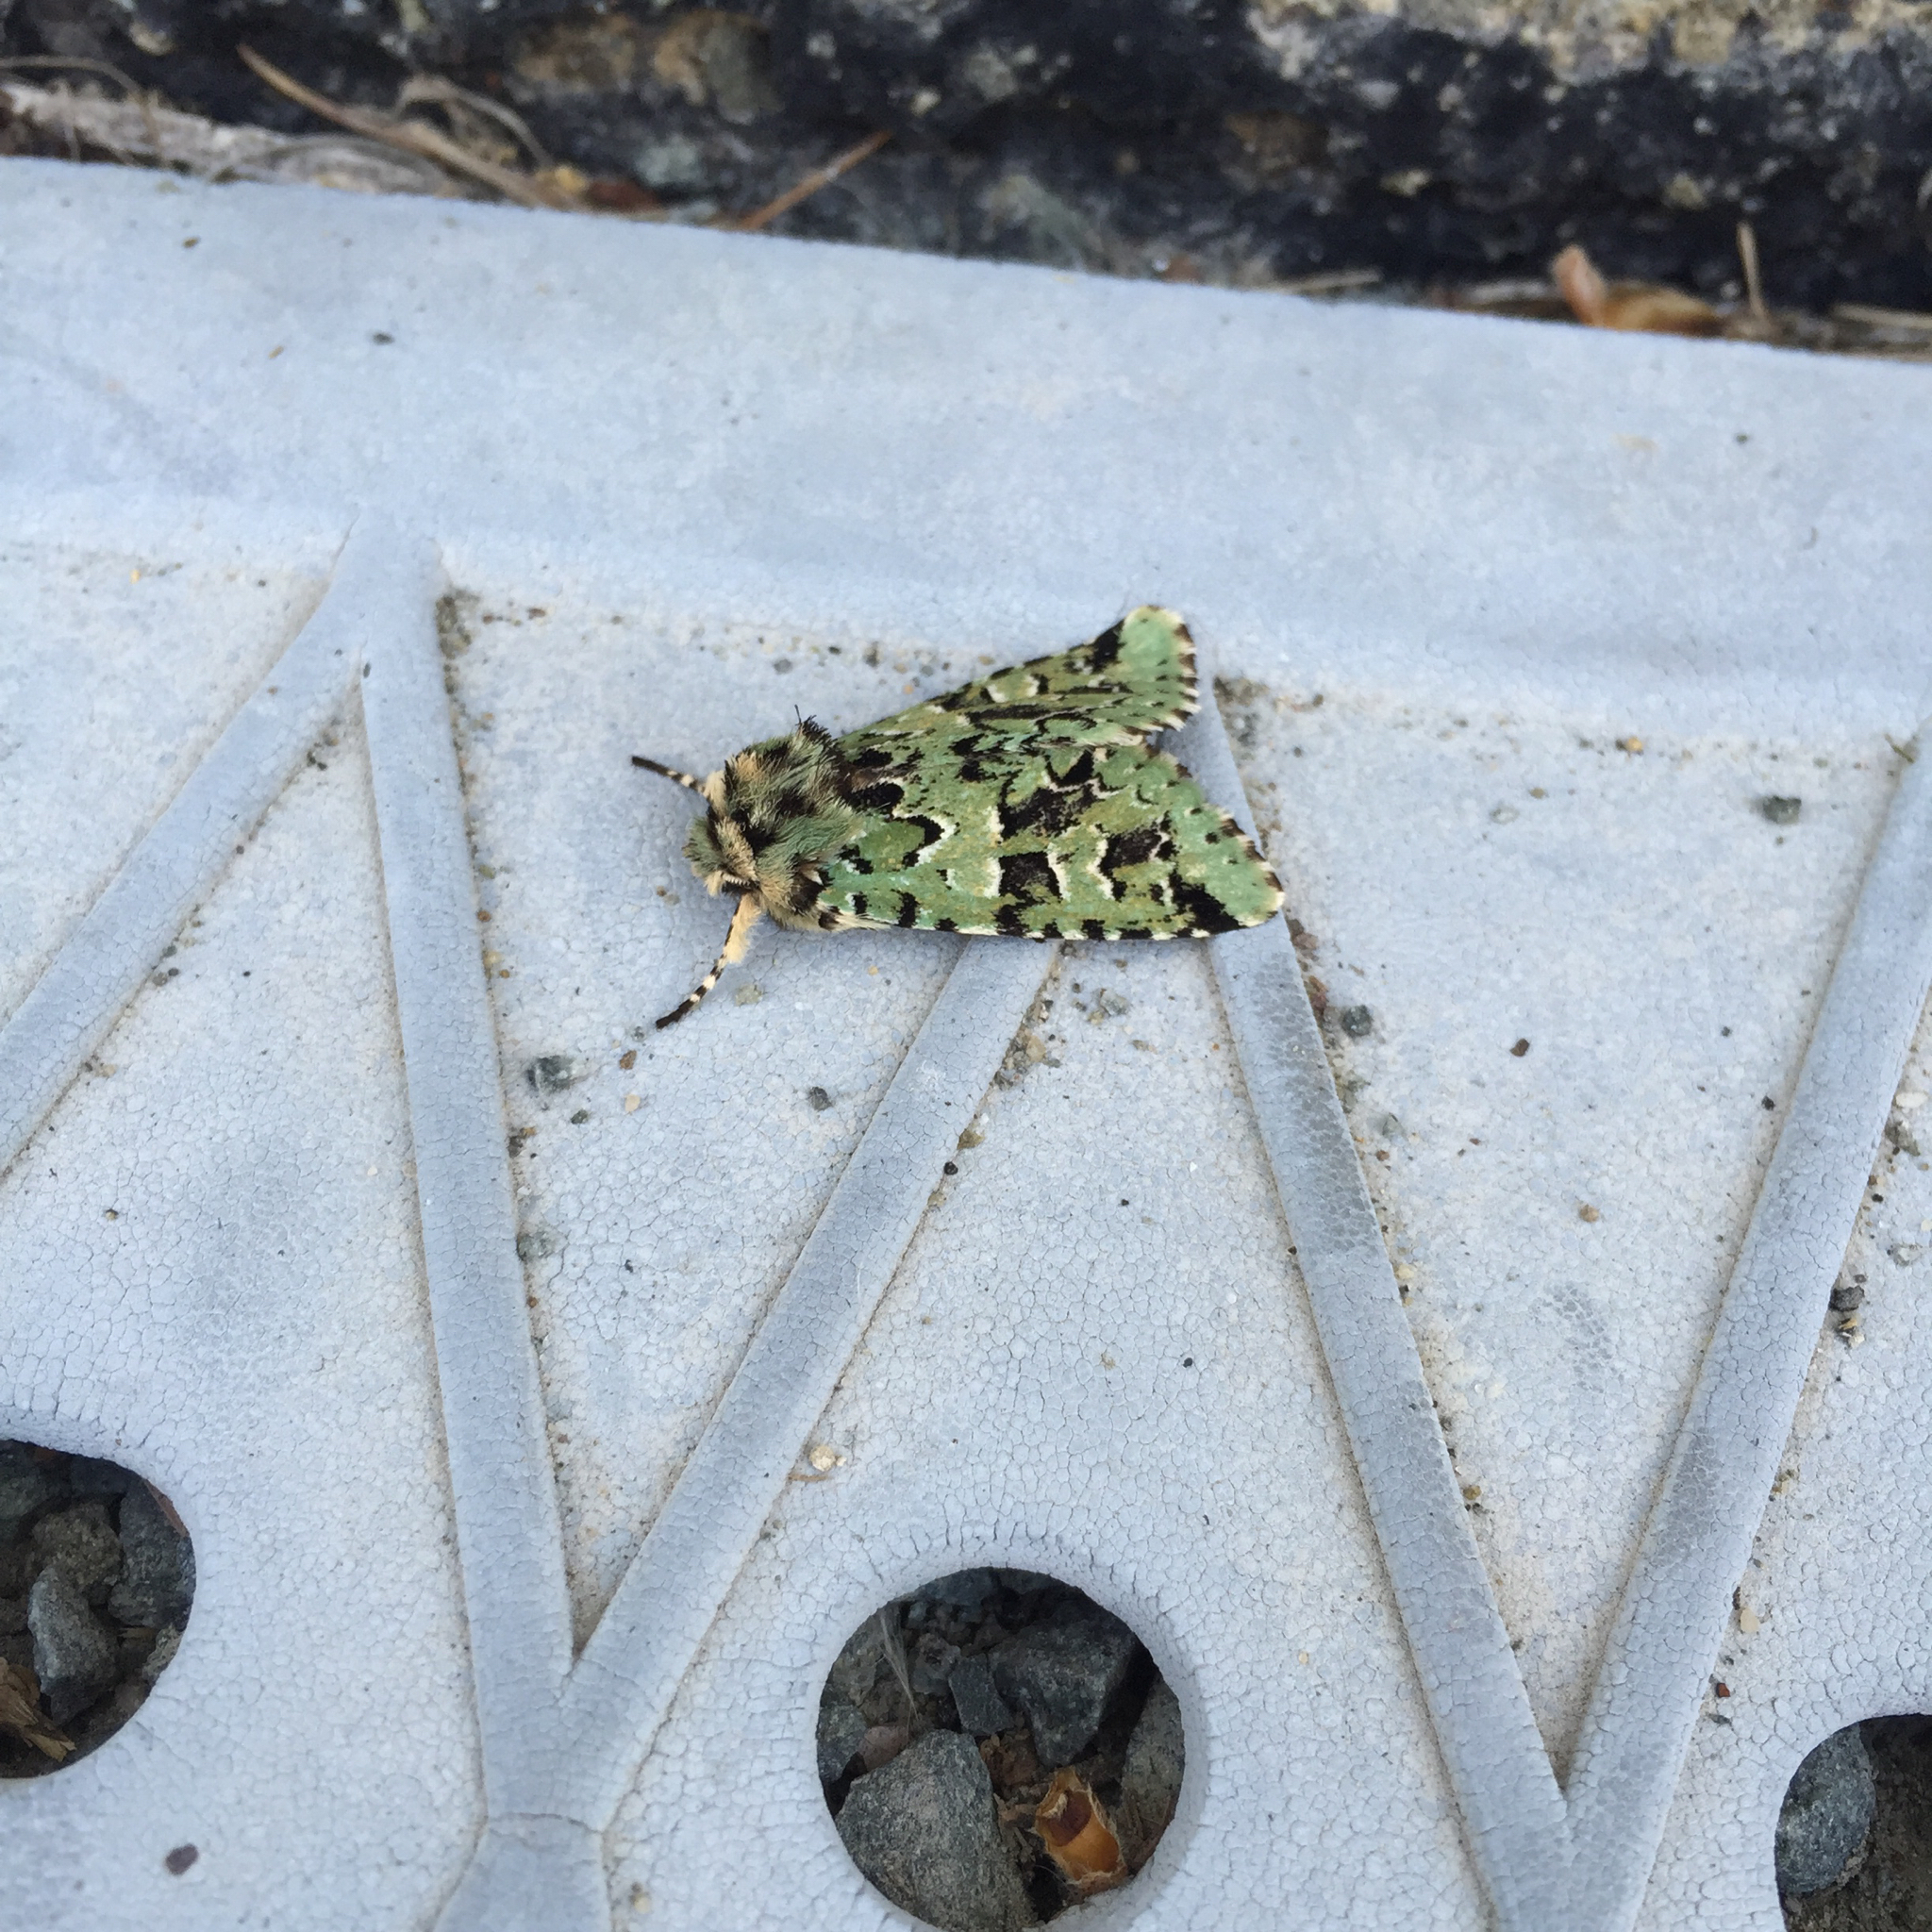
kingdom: Animalia
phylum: Arthropoda
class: Insecta
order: Lepidoptera
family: Noctuidae
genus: Feralia
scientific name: Feralia comstocki
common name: Comstock's sallow
